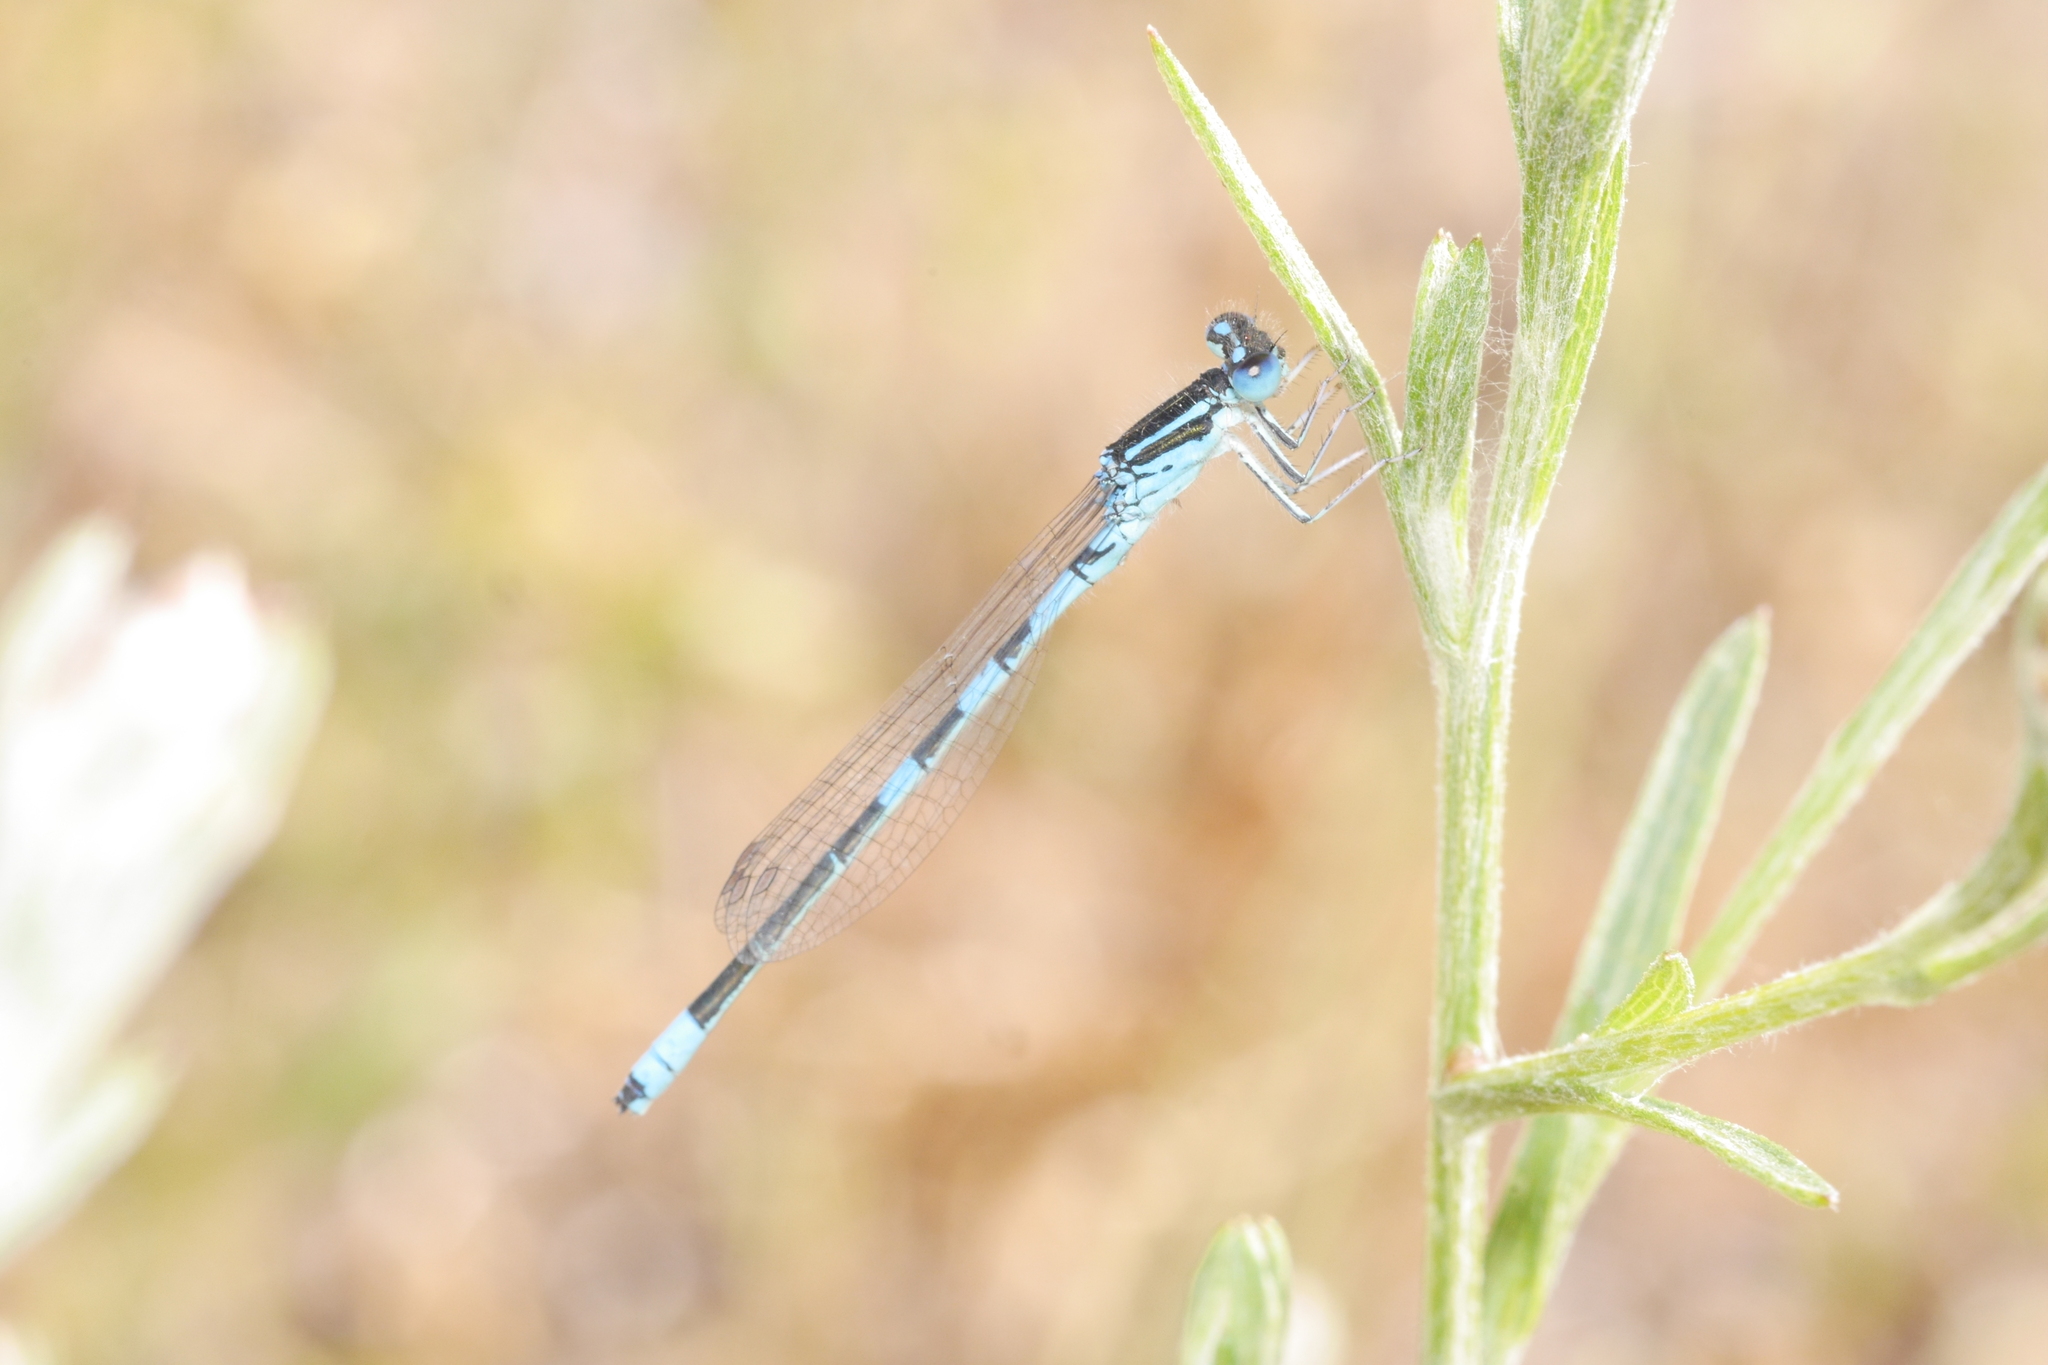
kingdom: Animalia
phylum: Arthropoda
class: Insecta
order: Odonata
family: Coenagrionidae
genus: Coenagrion
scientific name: Coenagrion scitulum
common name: Dainty bluet
